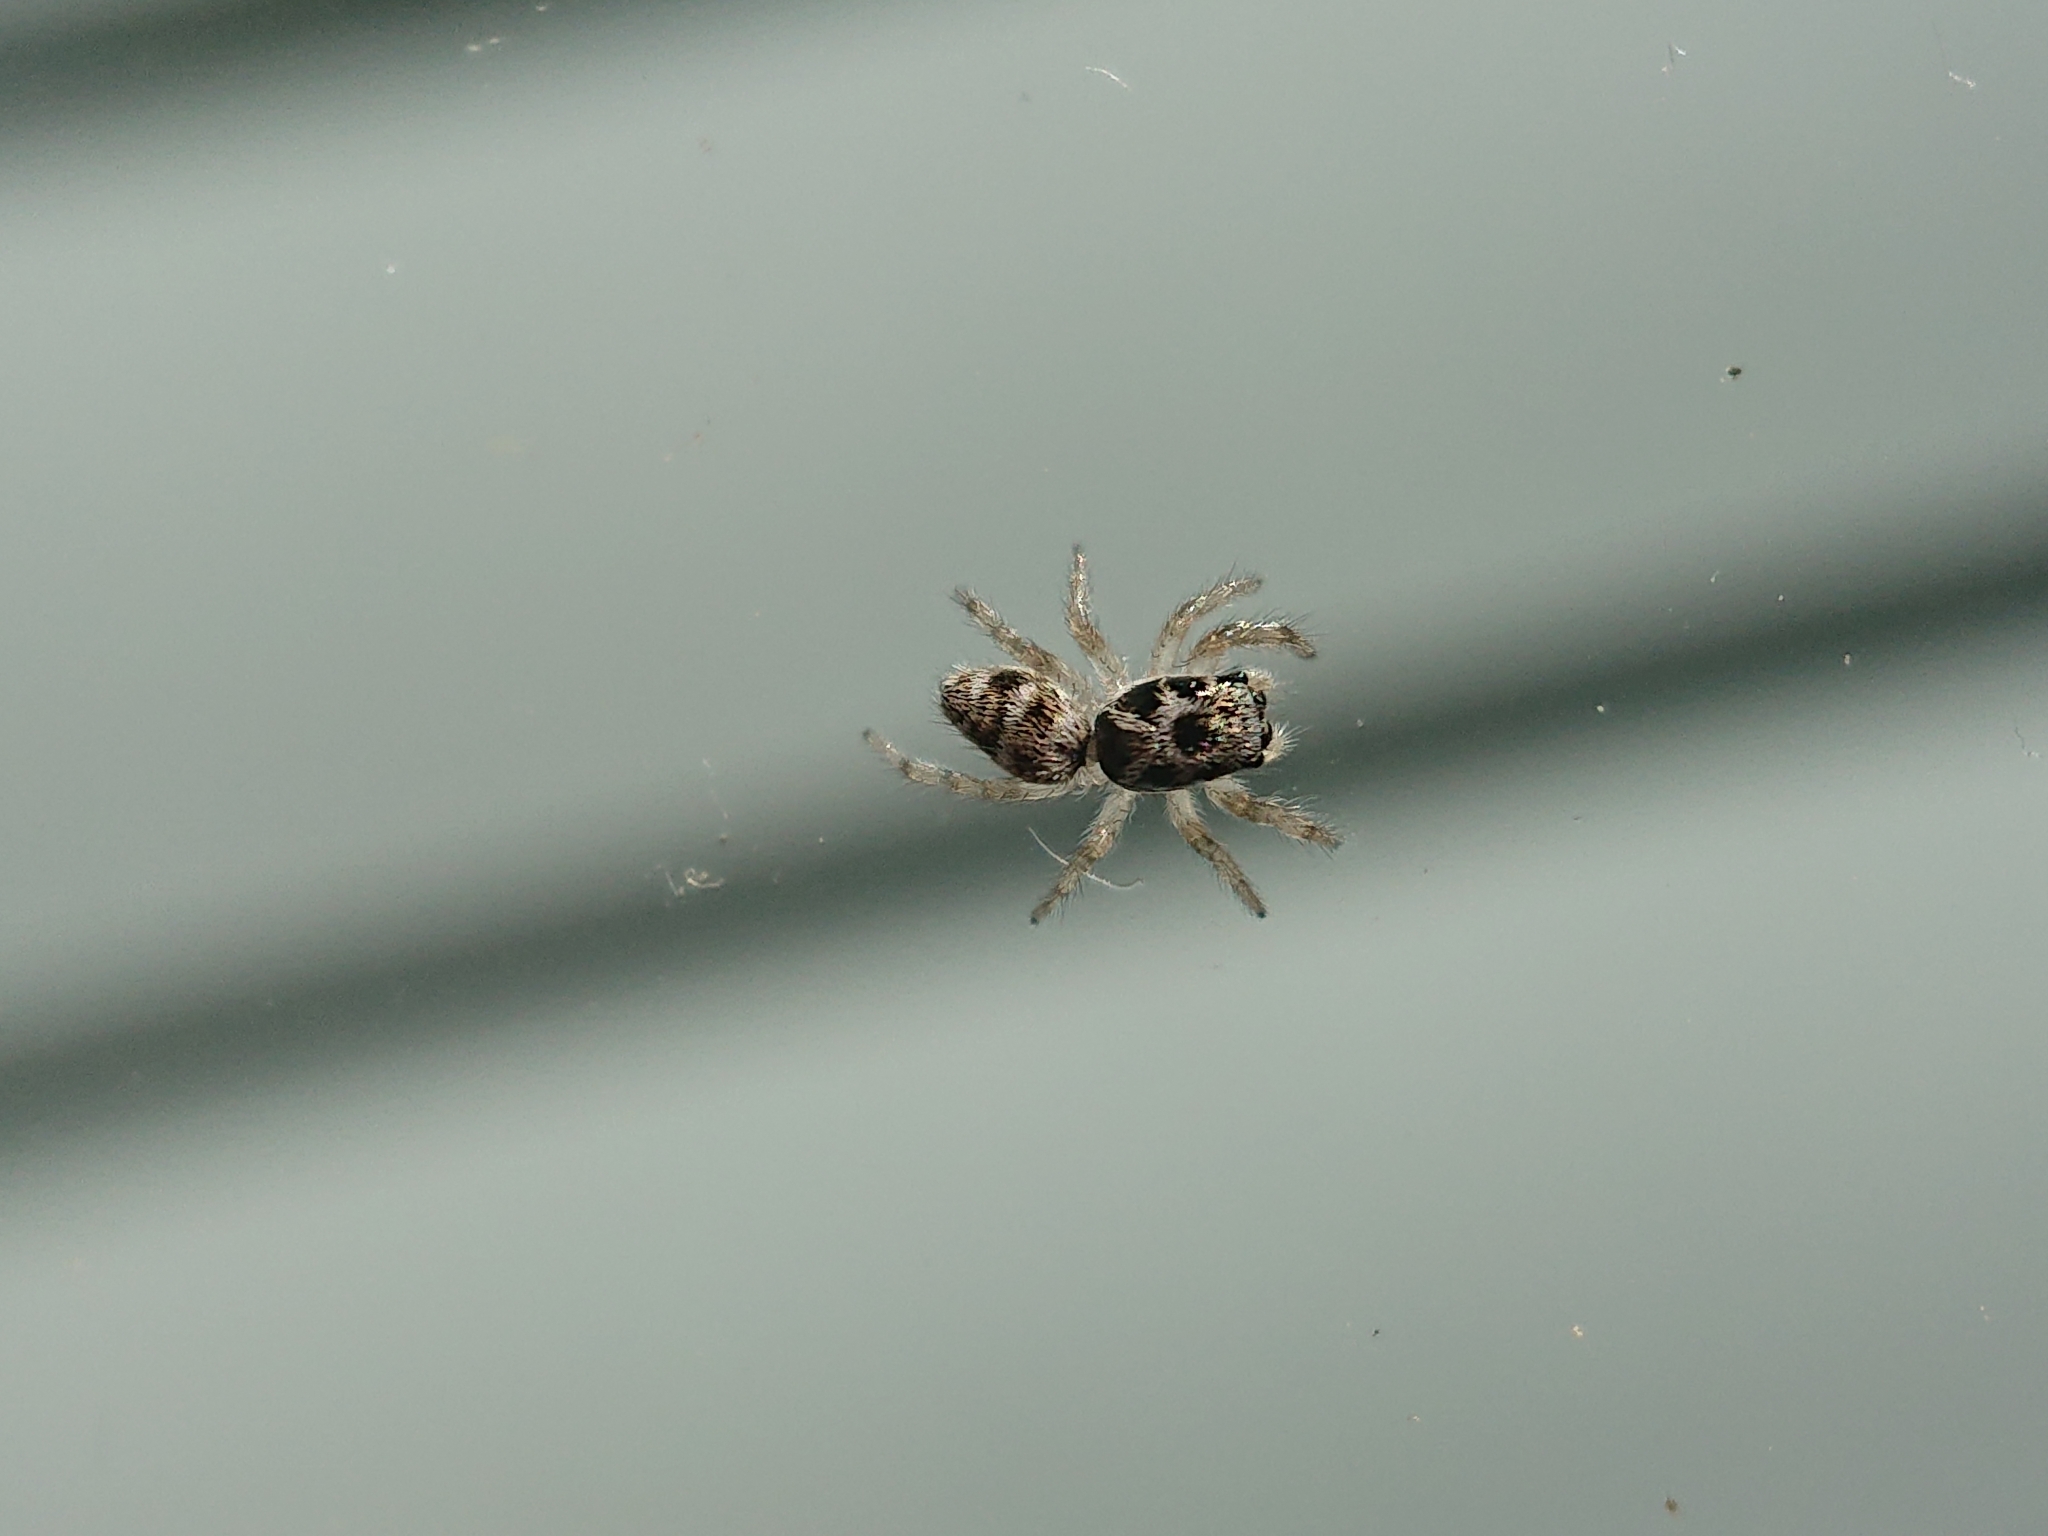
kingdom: Animalia
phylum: Arthropoda
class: Arachnida
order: Araneae
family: Salticidae
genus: Salticus
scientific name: Salticus scenicus
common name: Zebra jumper
